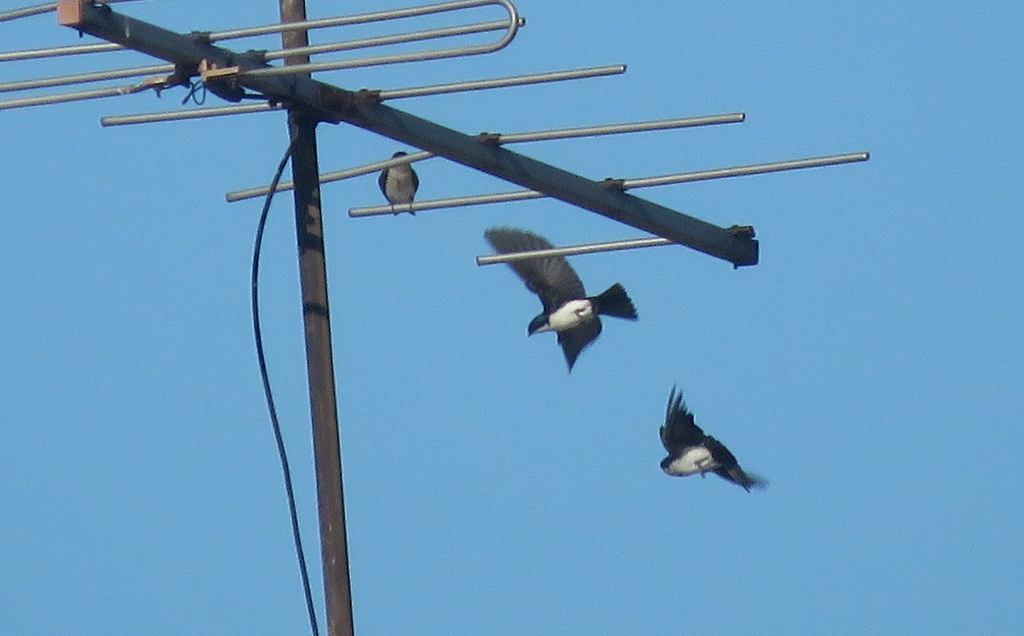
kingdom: Animalia
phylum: Chordata
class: Aves
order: Passeriformes
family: Hirundinidae
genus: Notiochelidon
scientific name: Notiochelidon cyanoleuca
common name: Blue-and-white swallow
